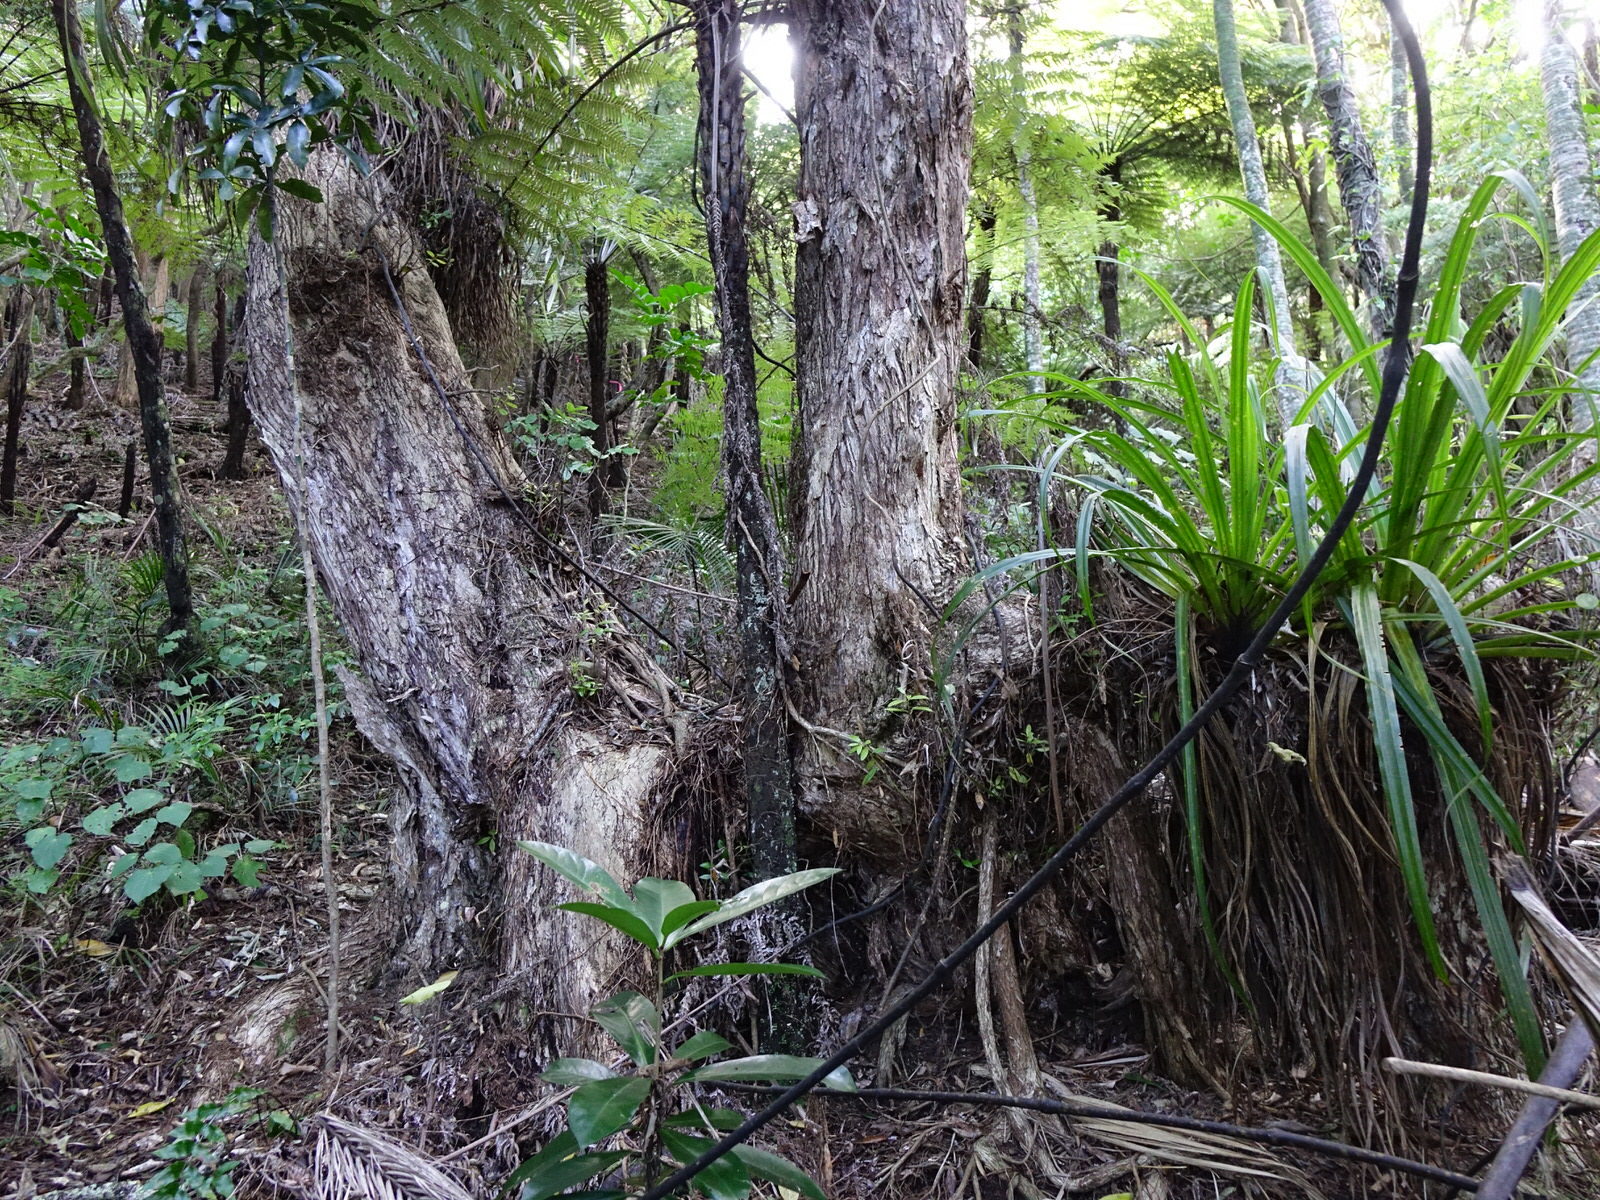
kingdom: Plantae
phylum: Tracheophyta
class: Magnoliopsida
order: Myrtales
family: Myrtaceae
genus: Metrosideros
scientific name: Metrosideros excelsa
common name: New zealand christmastree
